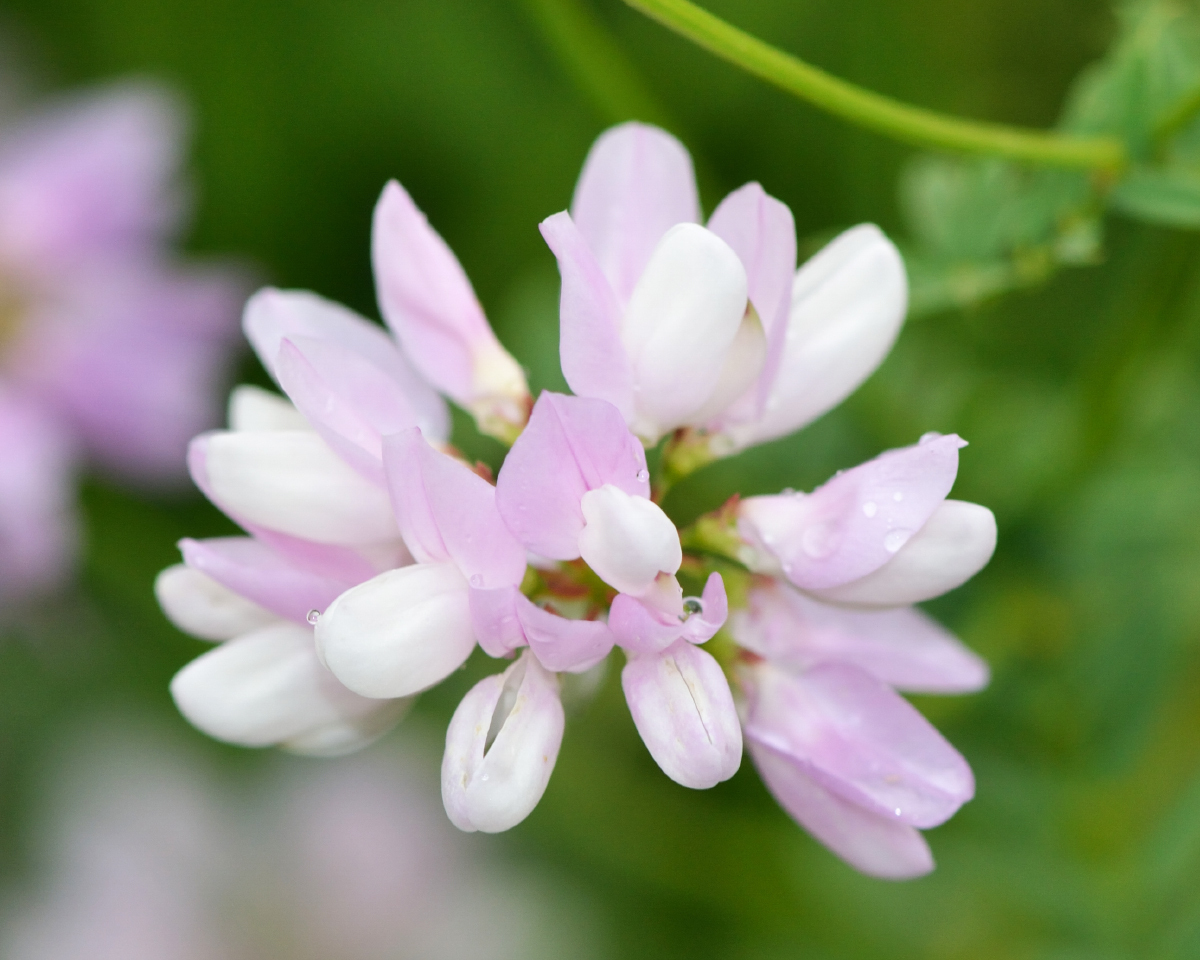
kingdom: Plantae
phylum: Tracheophyta
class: Magnoliopsida
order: Fabales
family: Fabaceae
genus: Coronilla
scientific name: Coronilla varia
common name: Crownvetch
